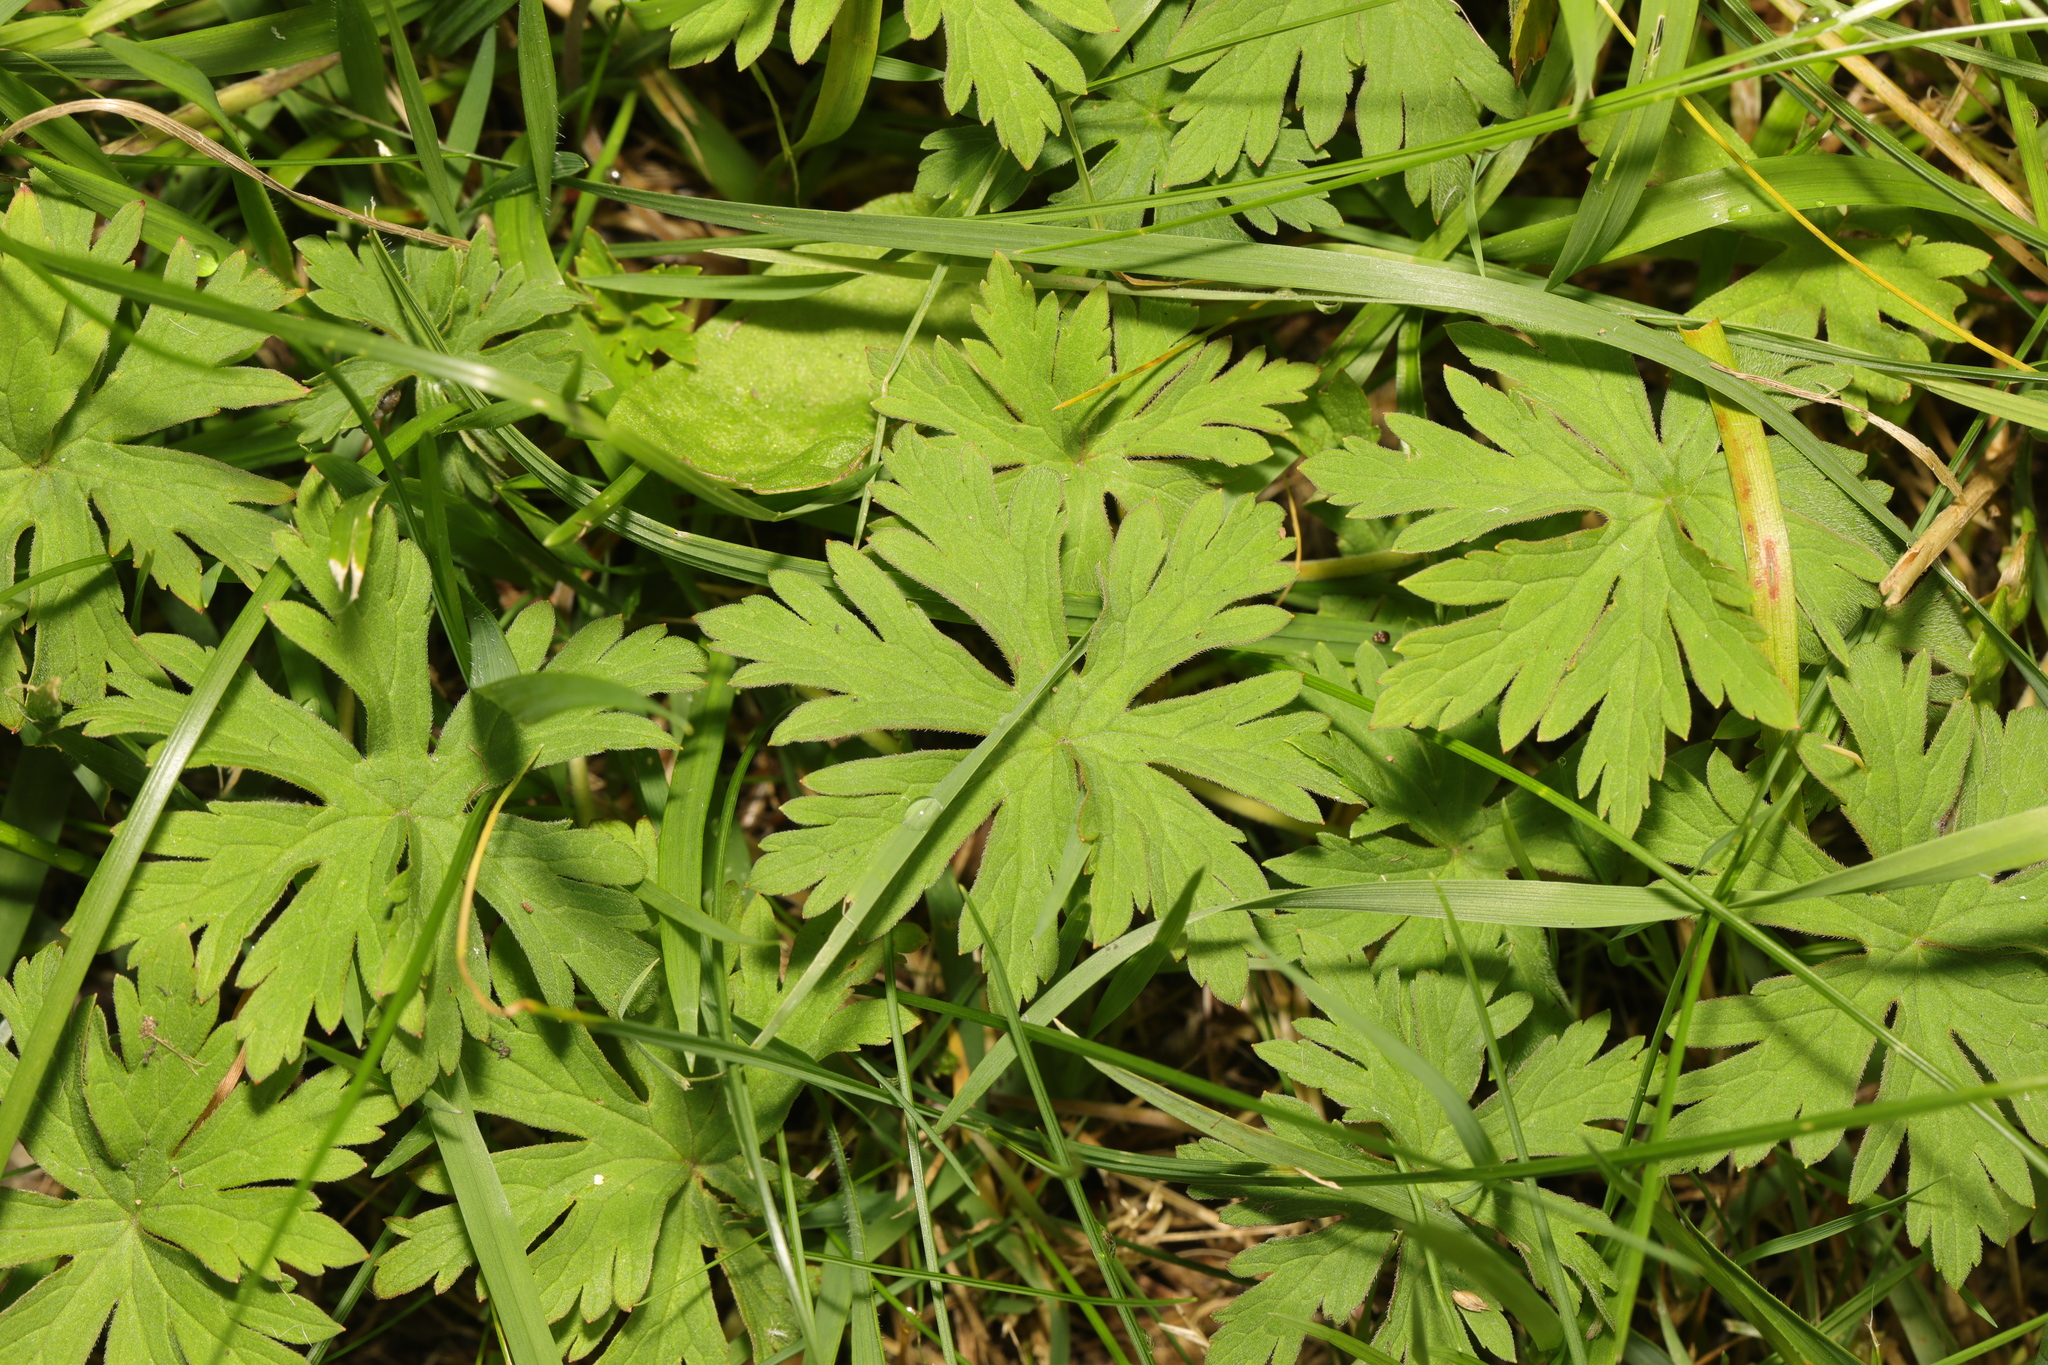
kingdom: Plantae
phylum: Tracheophyta
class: Magnoliopsida
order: Geraniales
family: Geraniaceae
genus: Geranium
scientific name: Geranium pratense
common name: Meadow crane's-bill
